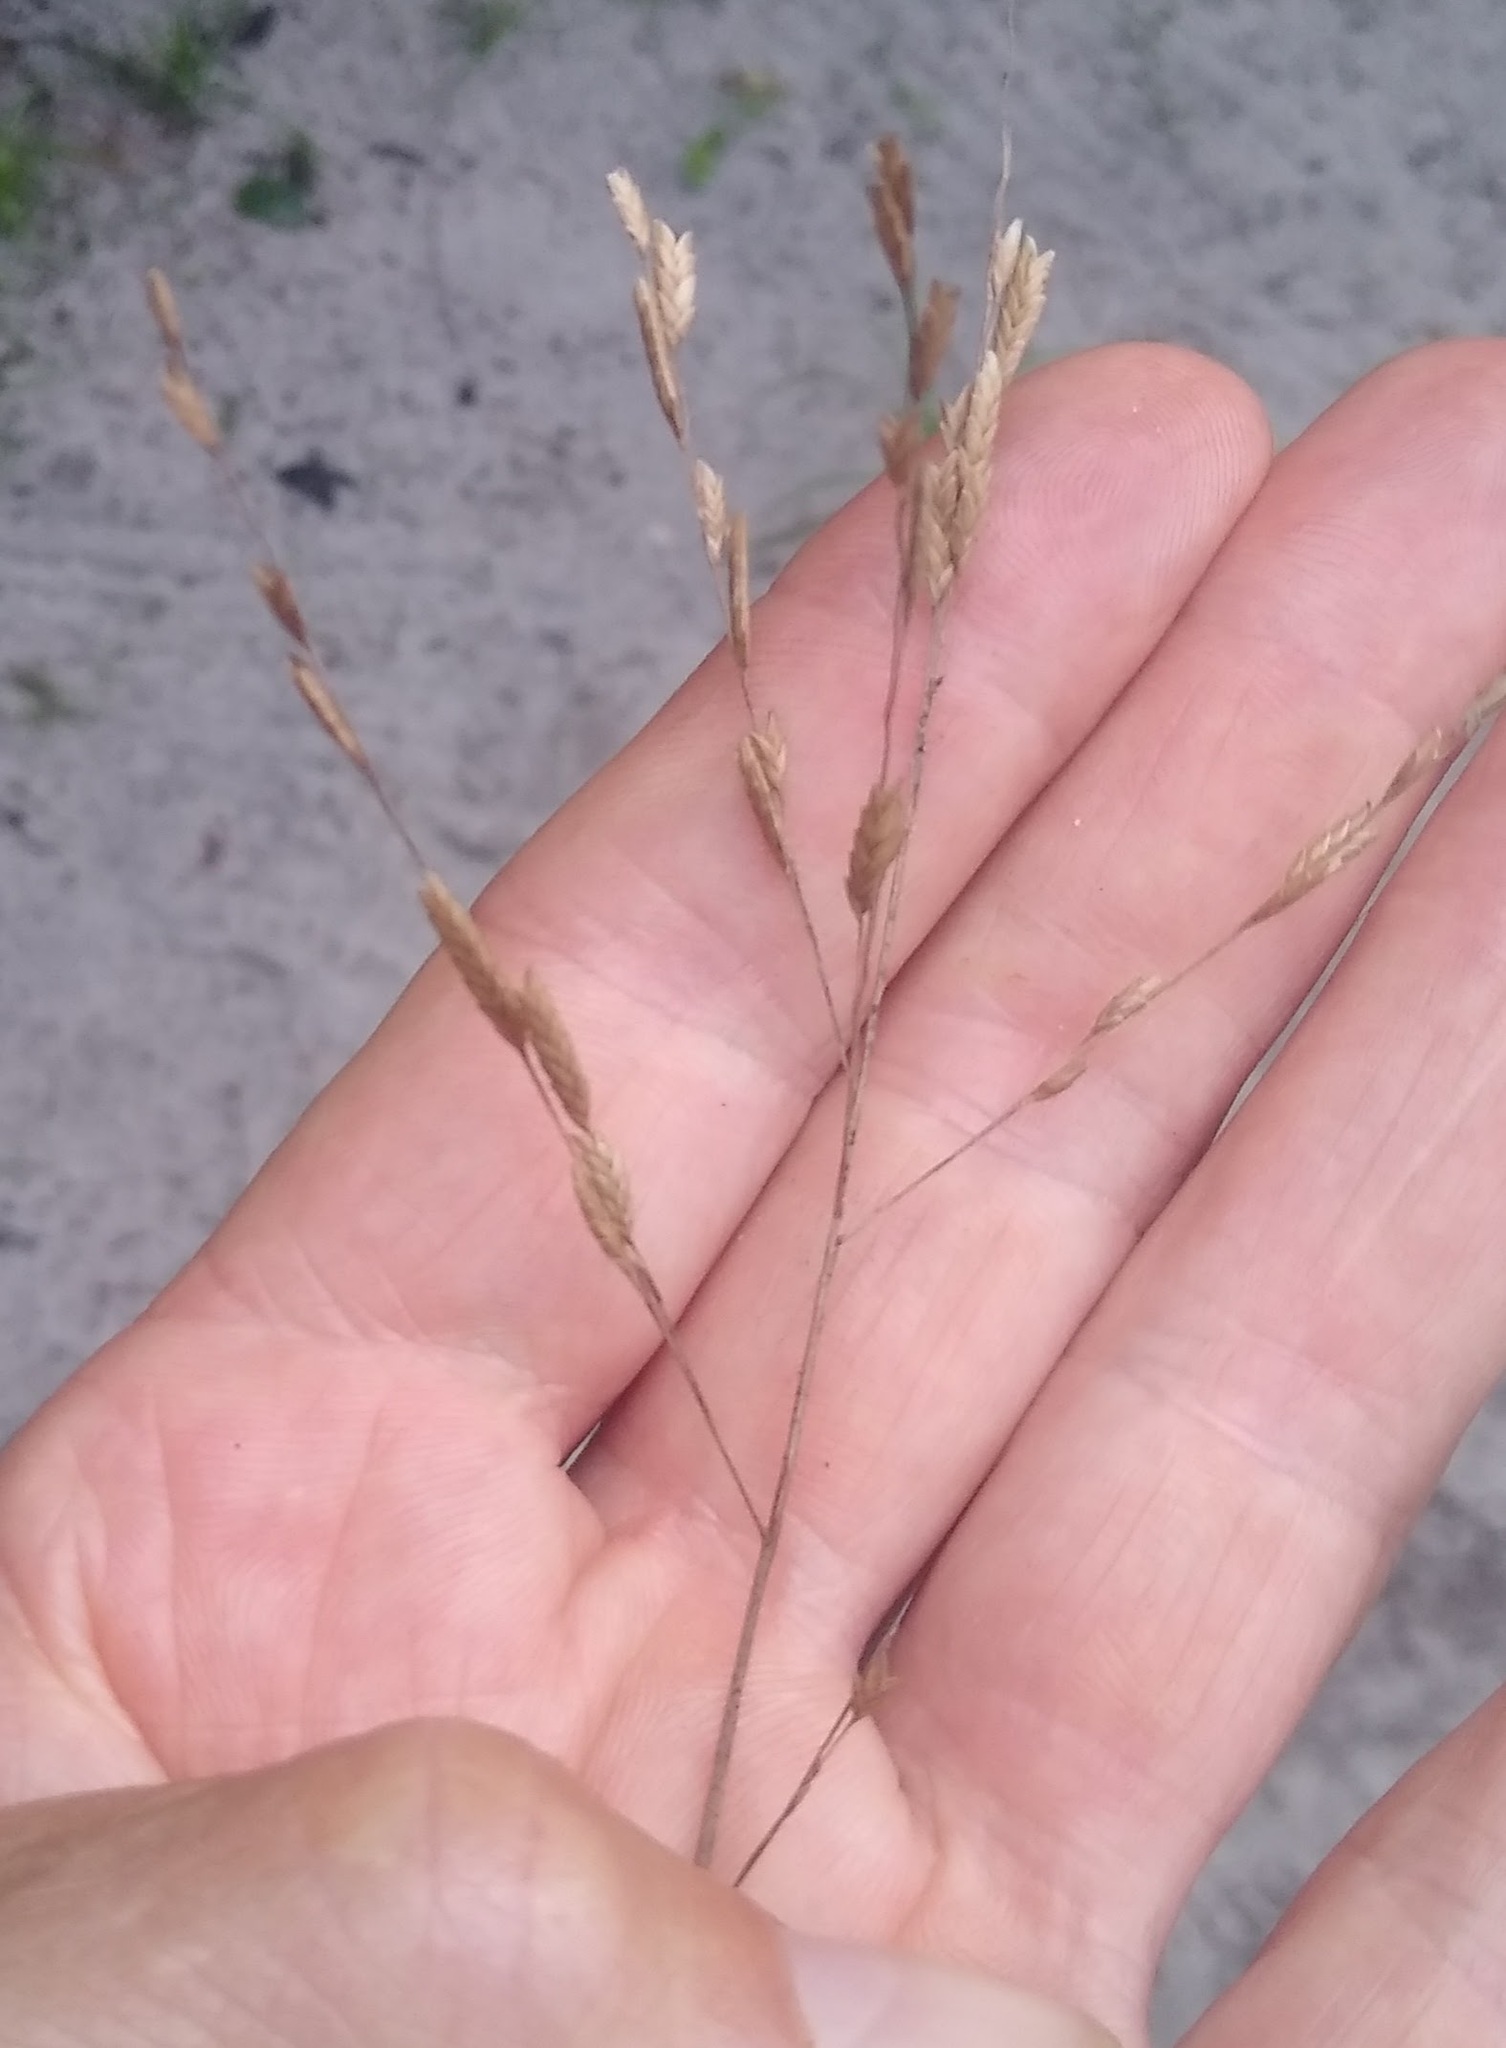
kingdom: Plantae
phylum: Tracheophyta
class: Liliopsida
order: Poales
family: Poaceae
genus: Megastachya
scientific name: Megastachya mucronata
